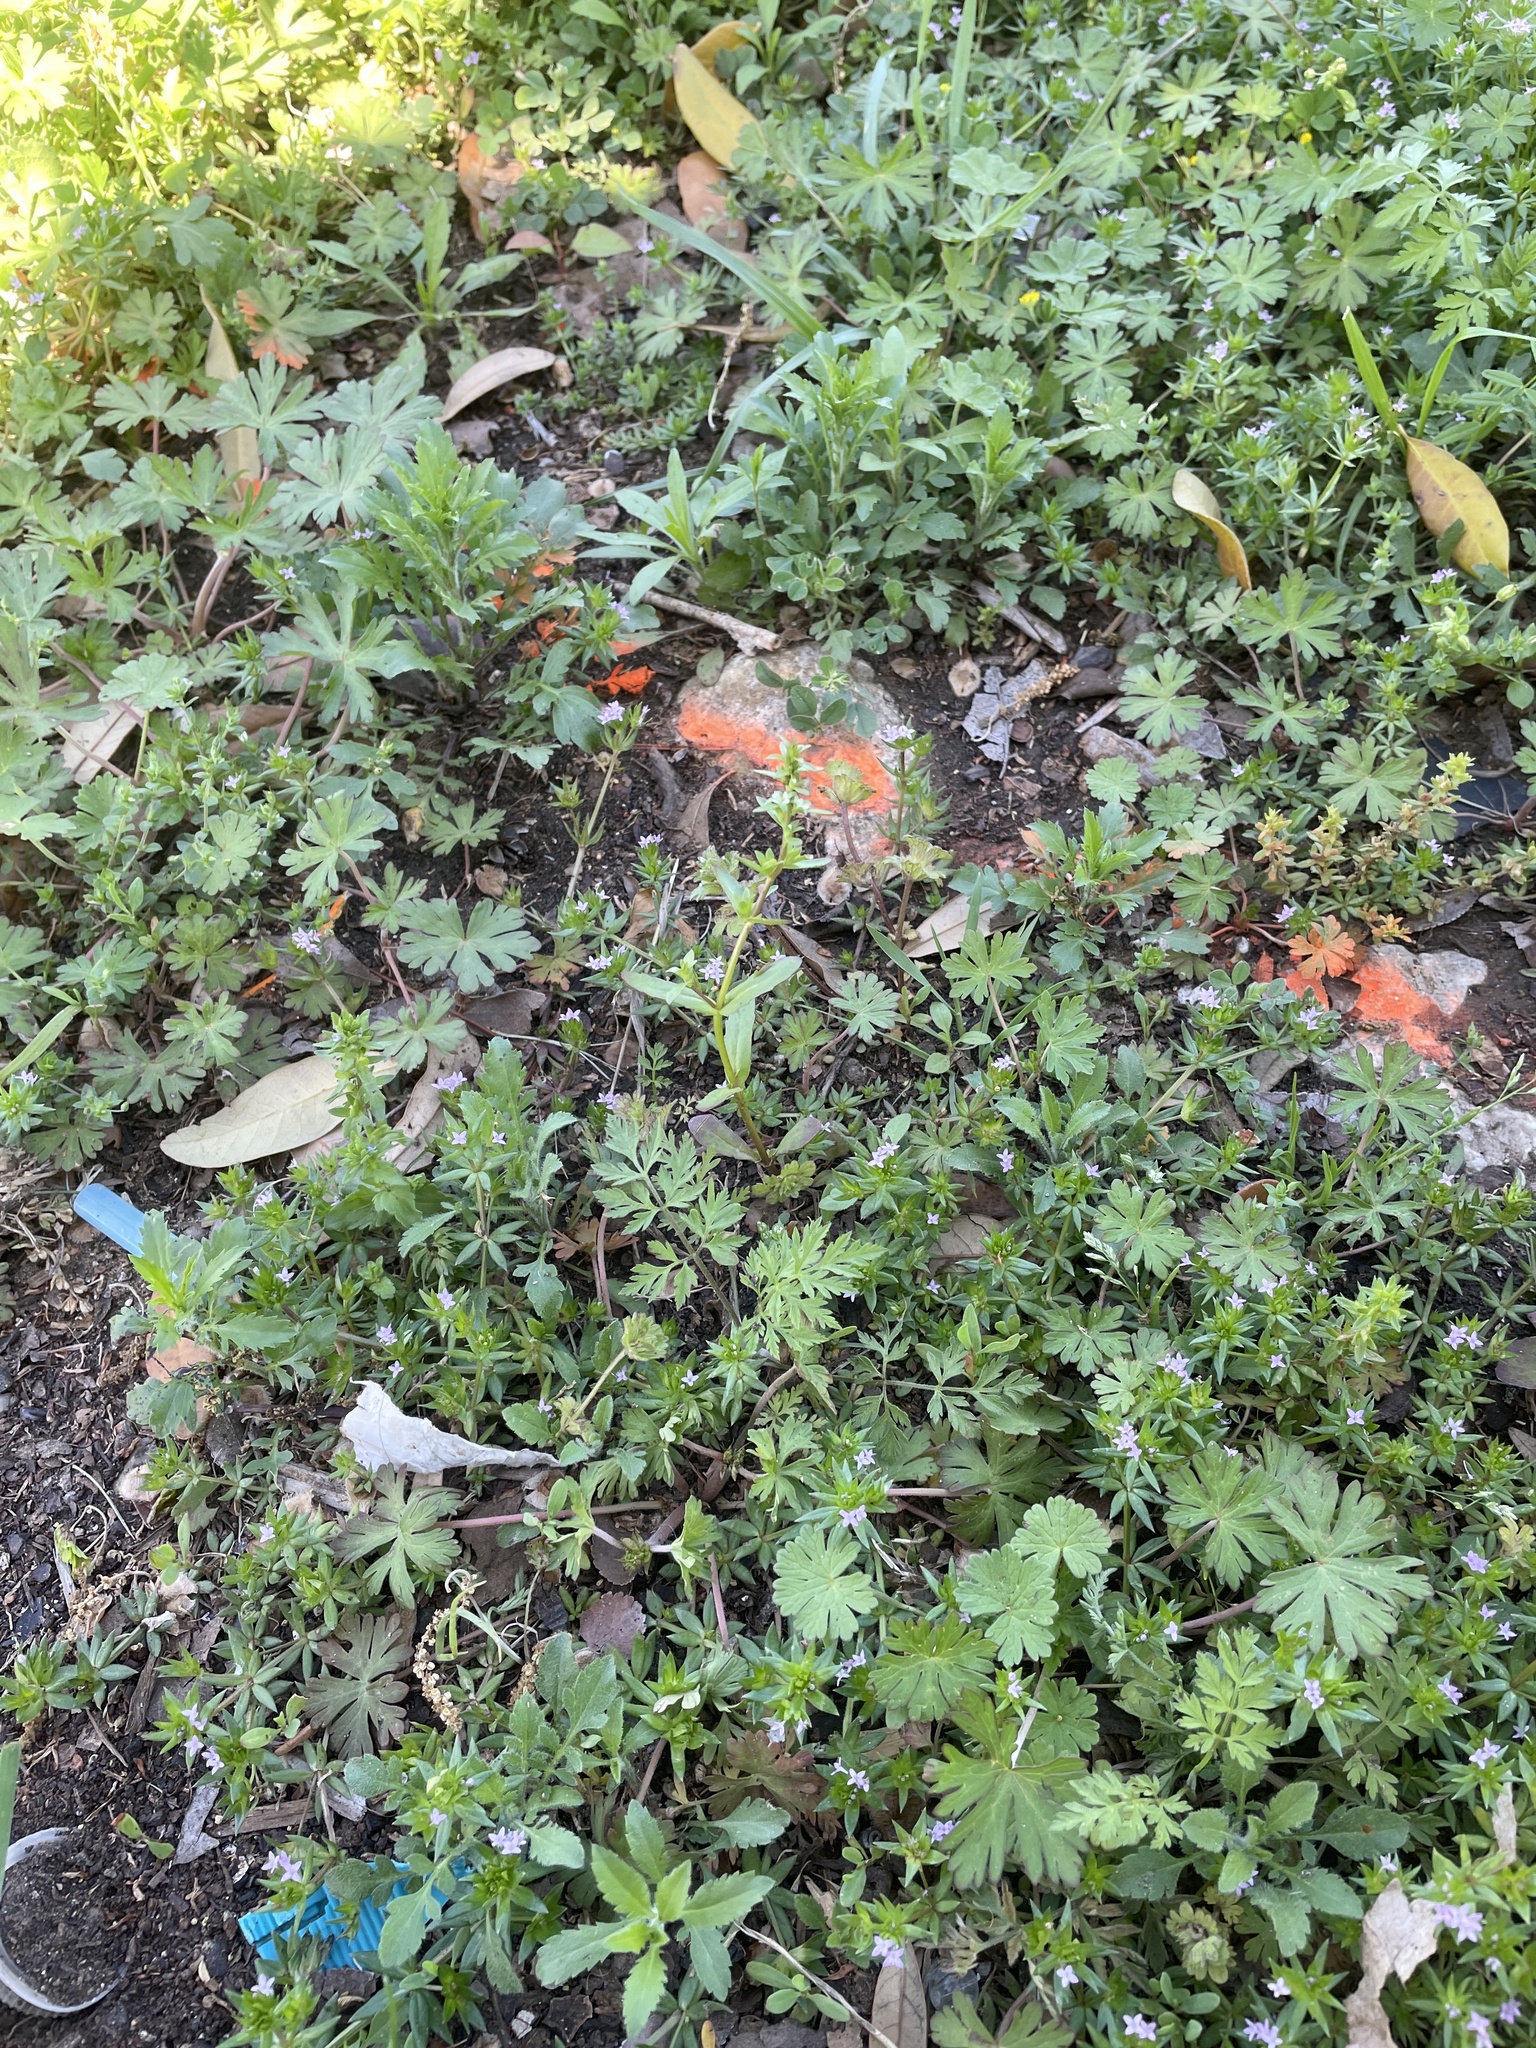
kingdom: Plantae
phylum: Tracheophyta
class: Magnoliopsida
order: Lamiales
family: Plantaginaceae
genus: Veronica
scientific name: Veronica peregrina
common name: Neckweed
